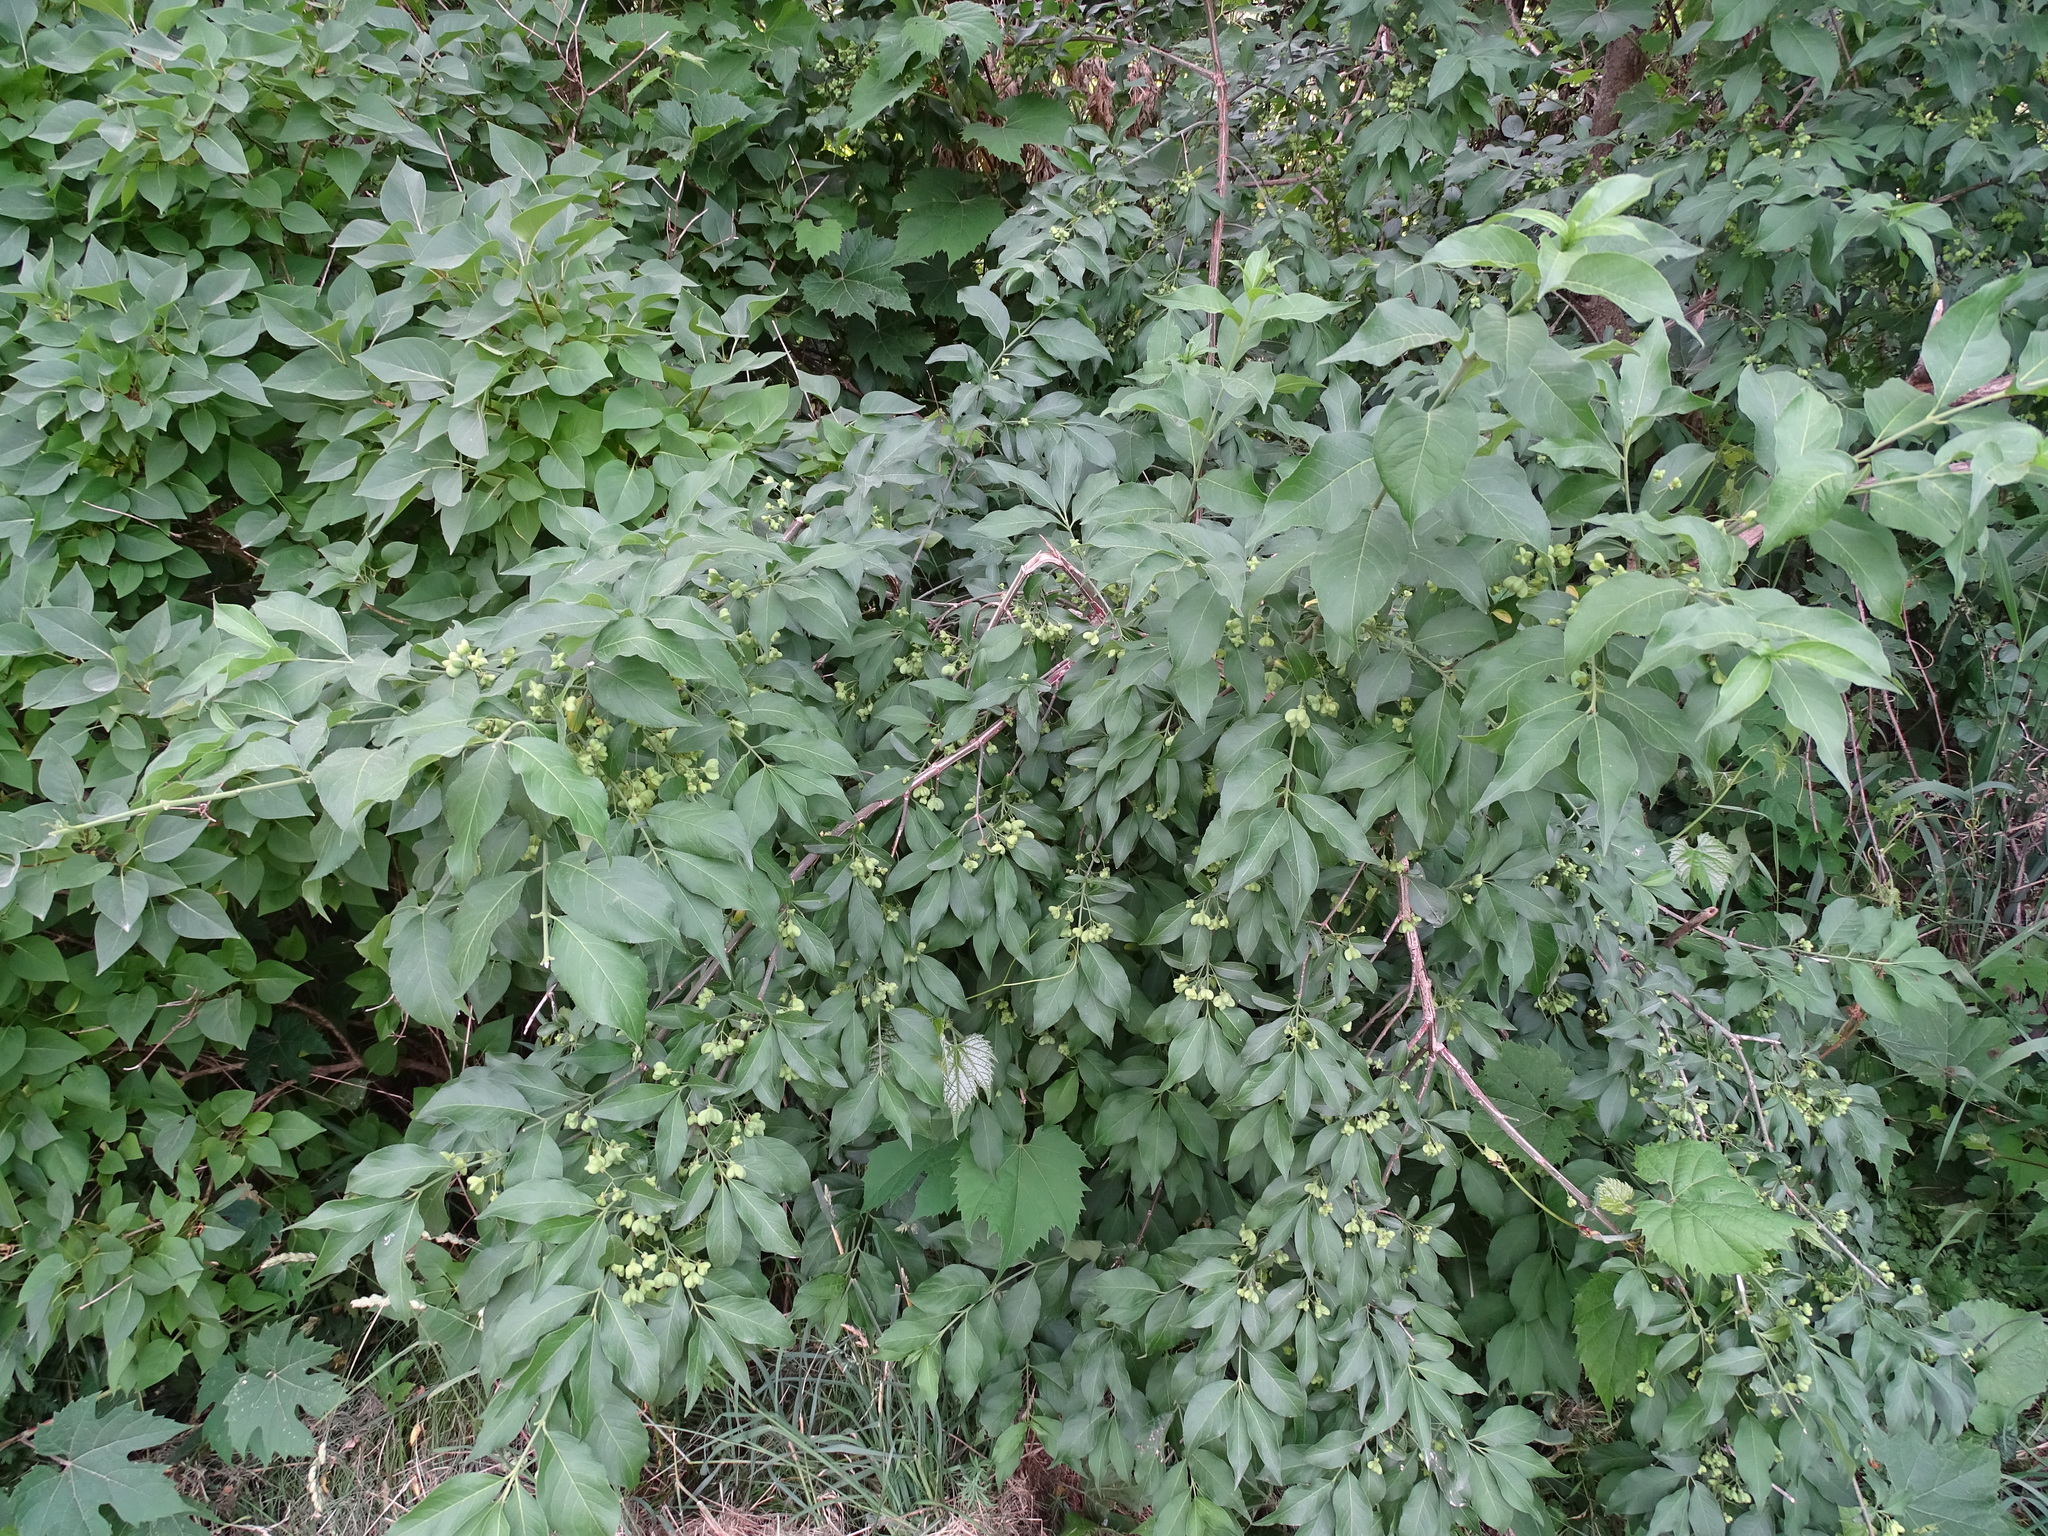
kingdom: Plantae
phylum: Tracheophyta
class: Magnoliopsida
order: Celastrales
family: Celastraceae
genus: Euonymus
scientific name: Euonymus europaeus
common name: Spindle
